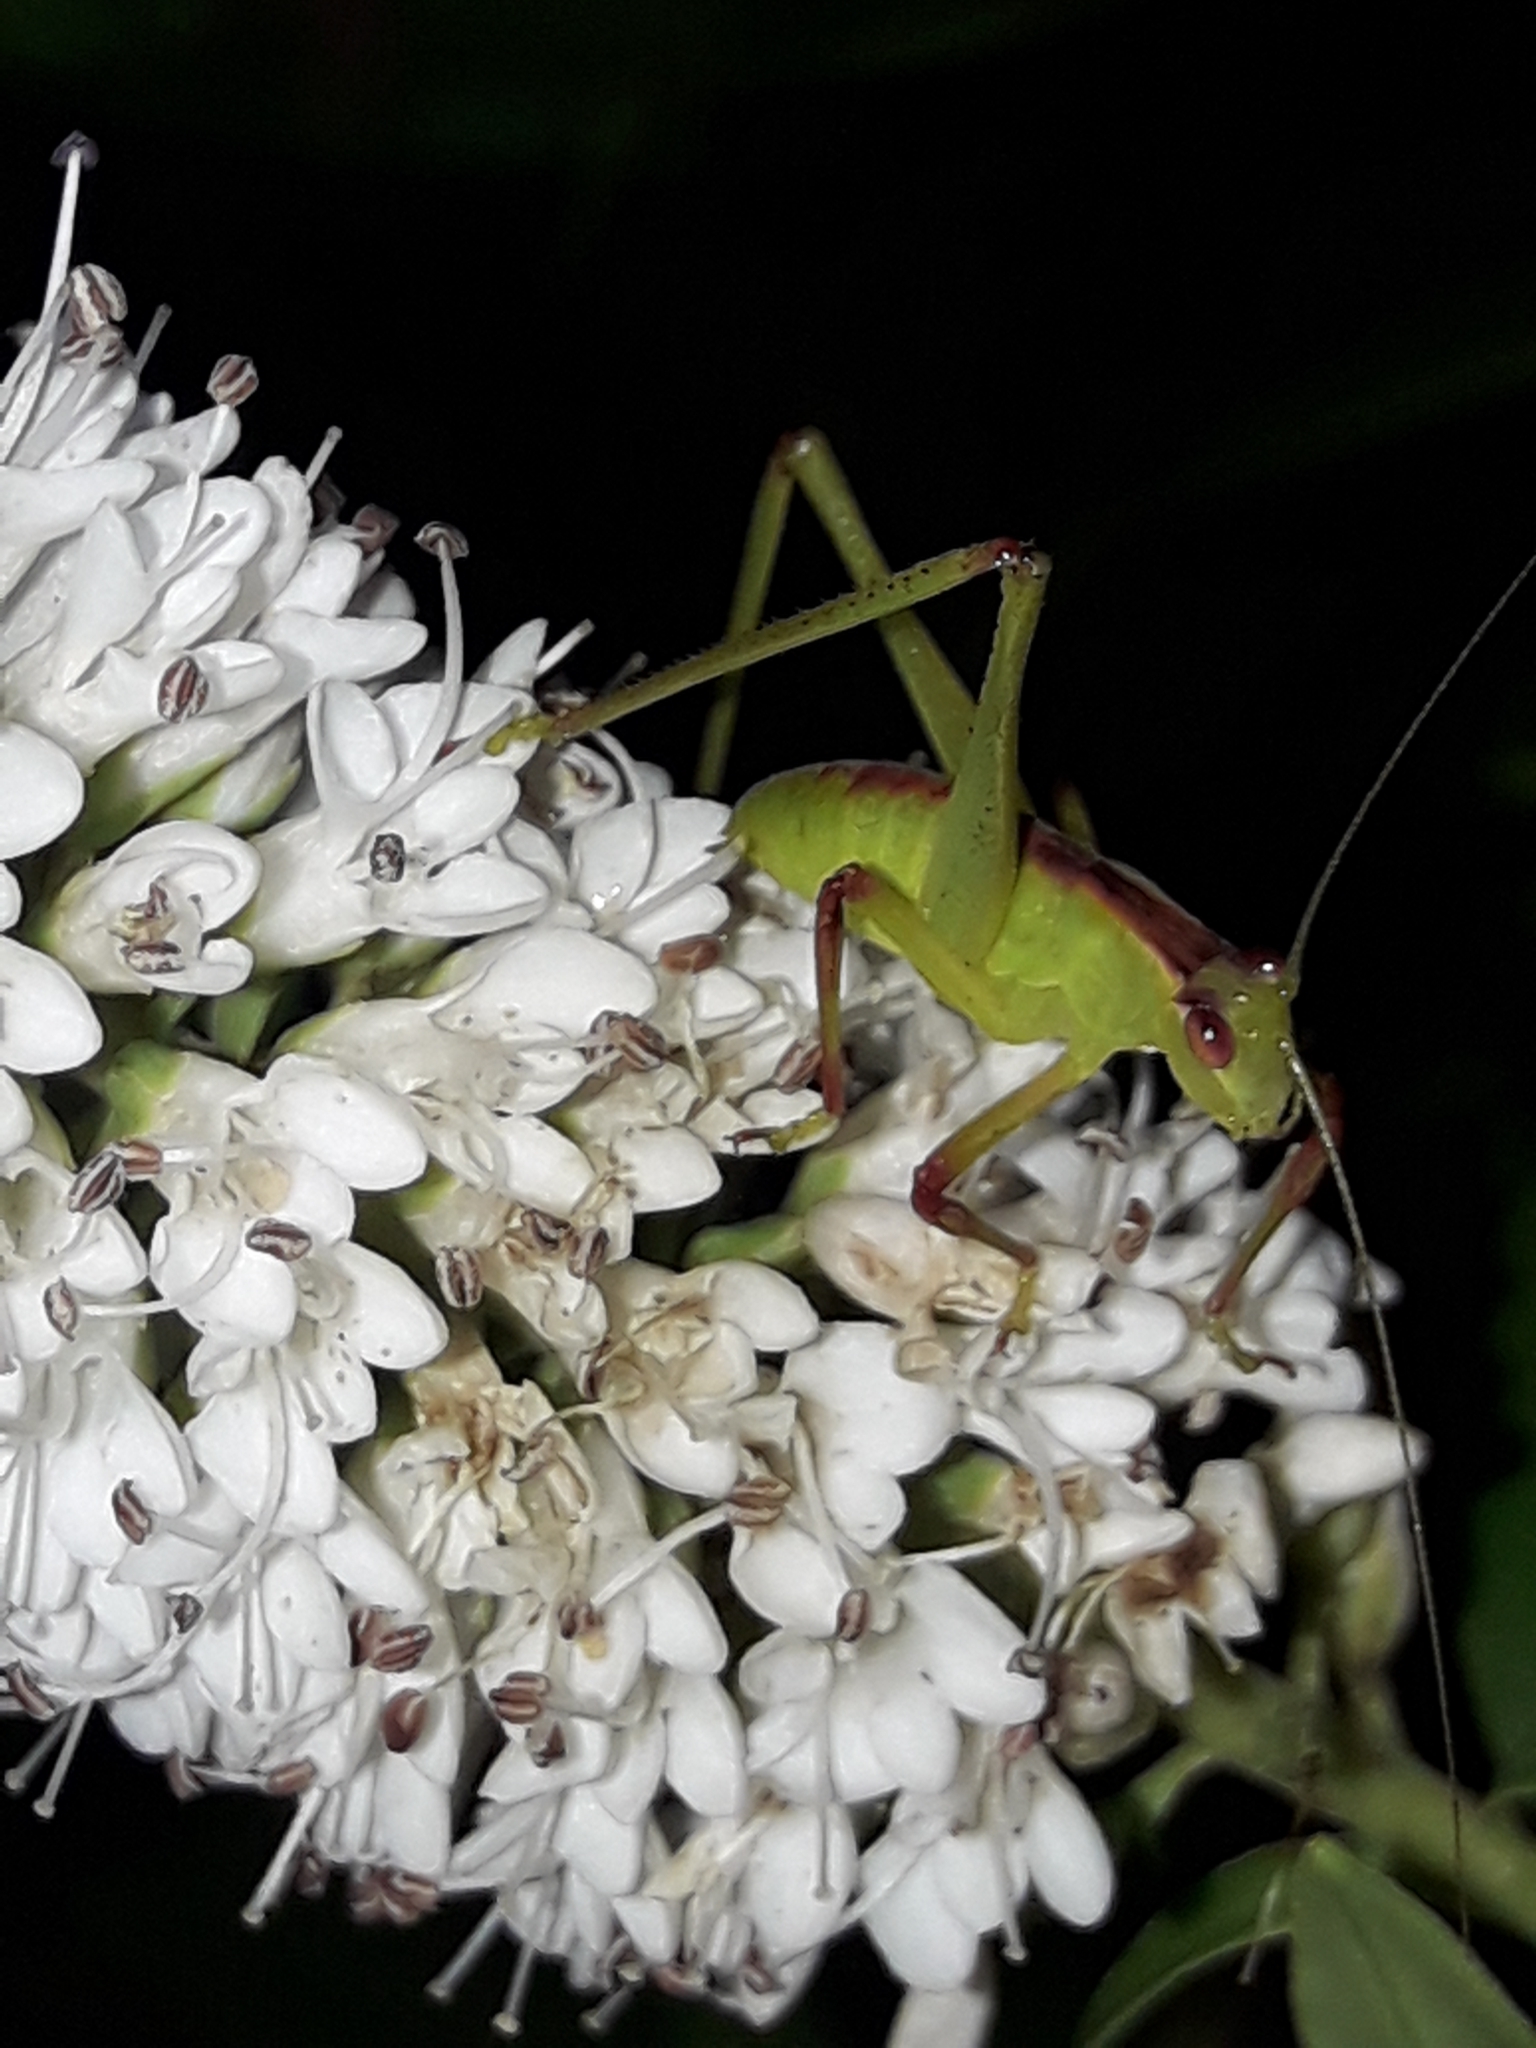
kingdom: Animalia
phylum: Arthropoda
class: Insecta
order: Orthoptera
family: Tettigoniidae
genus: Caedicia
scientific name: Caedicia simplex
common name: Common garden katydid
